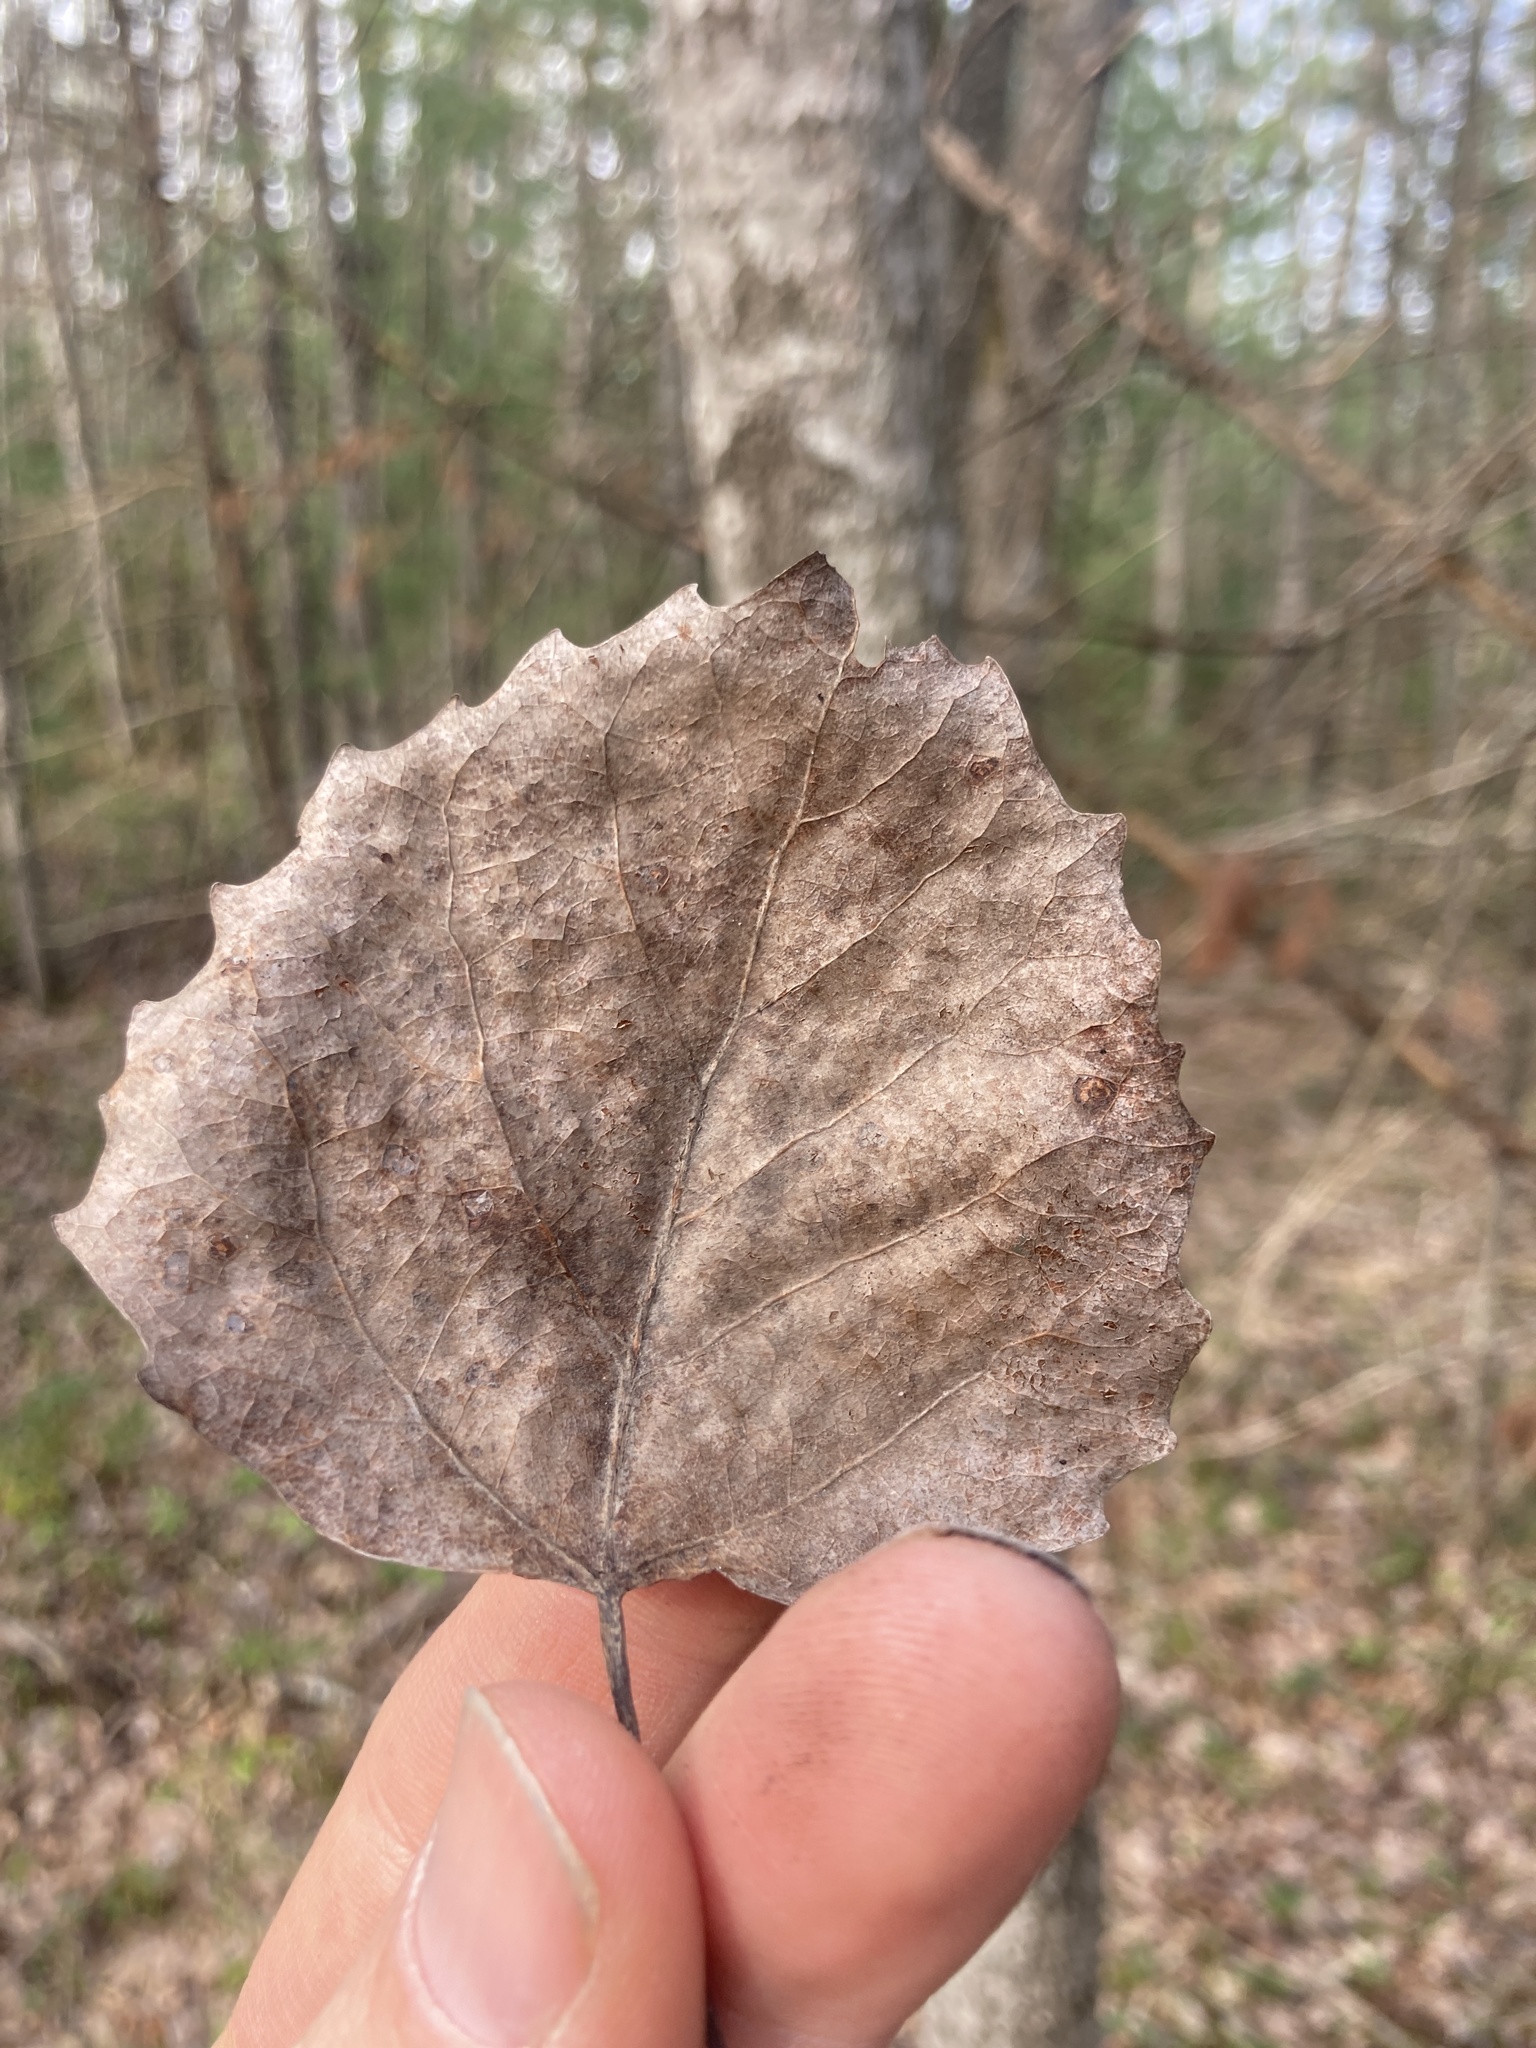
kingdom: Plantae
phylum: Tracheophyta
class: Magnoliopsida
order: Malpighiales
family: Salicaceae
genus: Populus
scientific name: Populus grandidentata
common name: Bigtooth aspen
